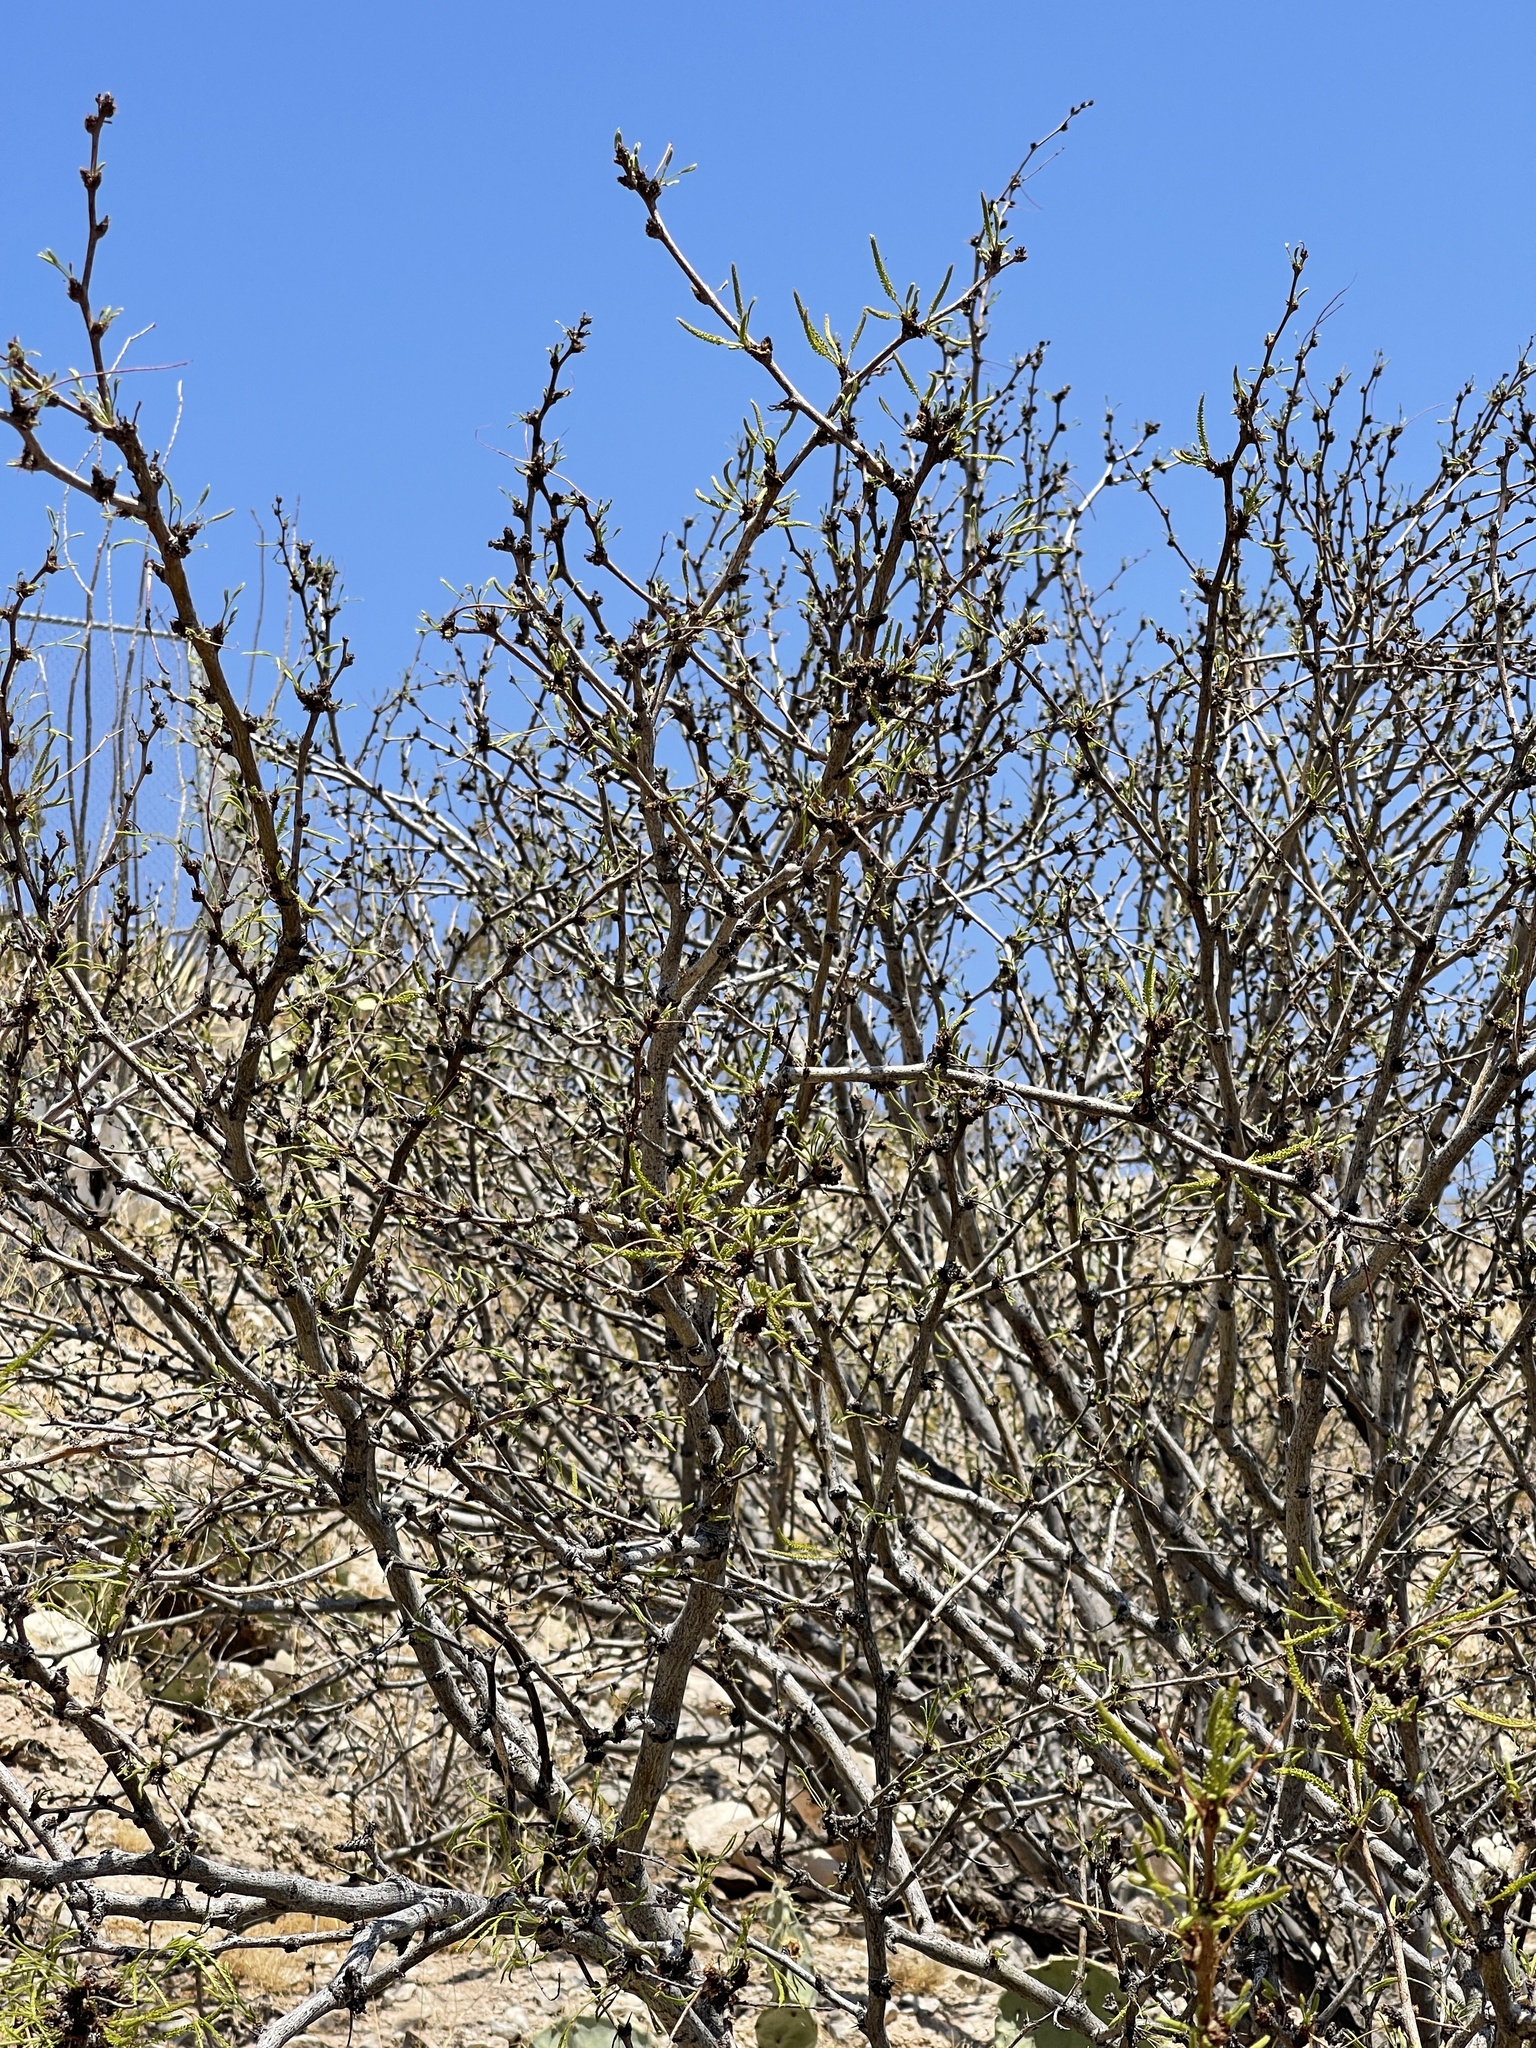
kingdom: Plantae
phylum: Tracheophyta
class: Magnoliopsida
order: Fabales
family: Fabaceae
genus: Prosopis
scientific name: Prosopis glandulosa
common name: Honey mesquite
